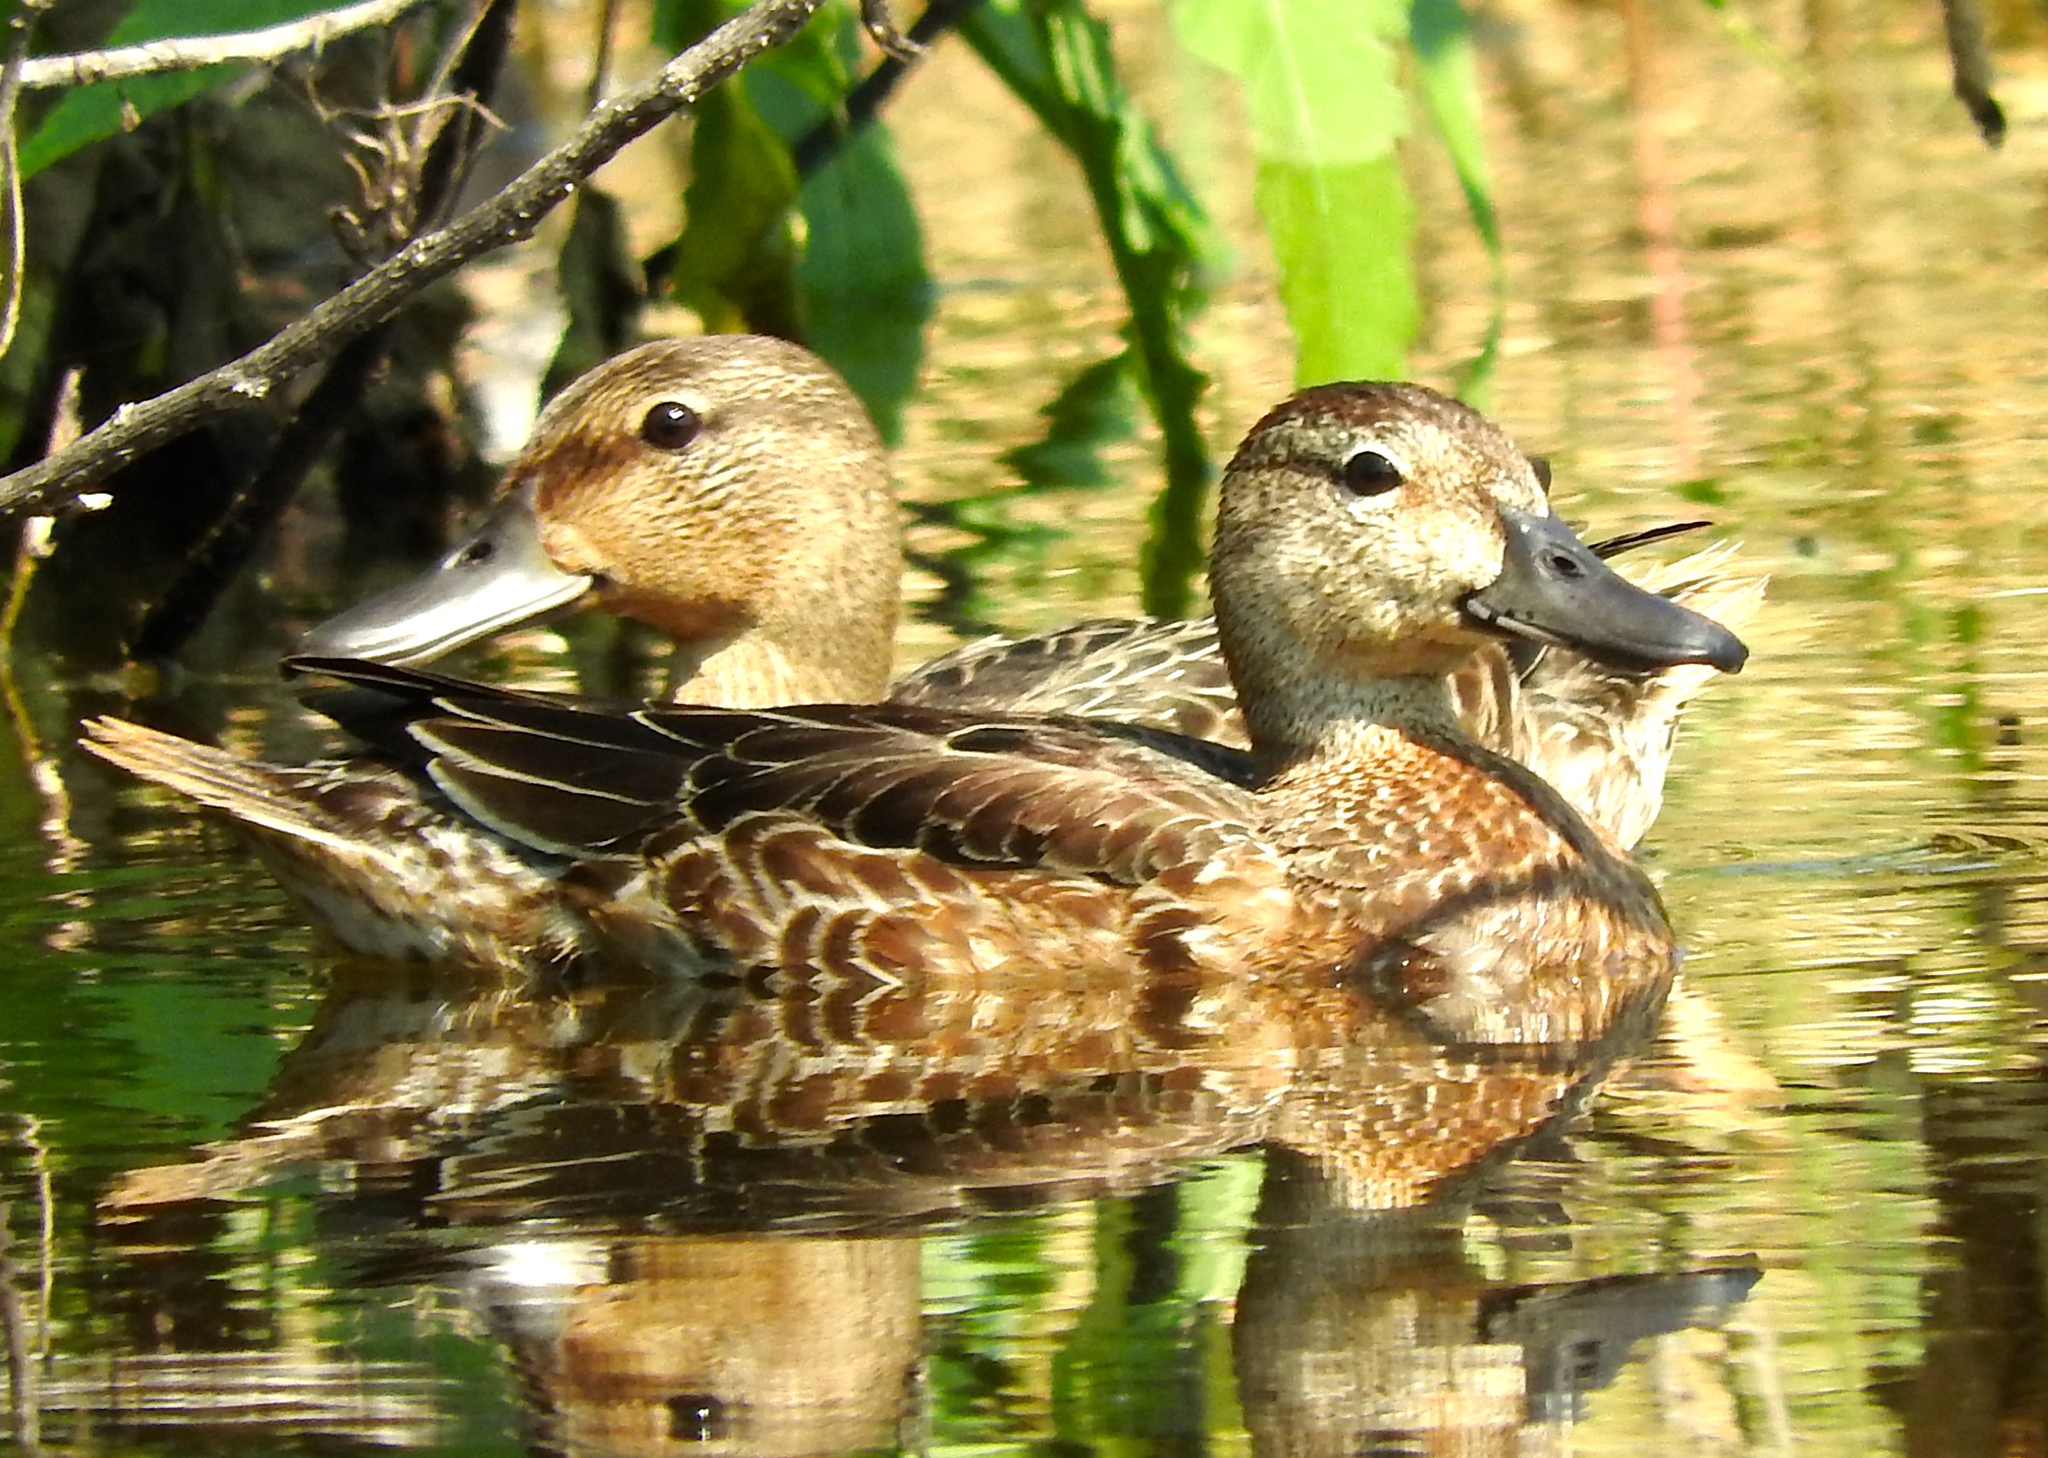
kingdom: Animalia
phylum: Chordata
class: Aves
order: Anseriformes
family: Anatidae
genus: Anas
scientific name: Anas crecca
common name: Eurasian teal
